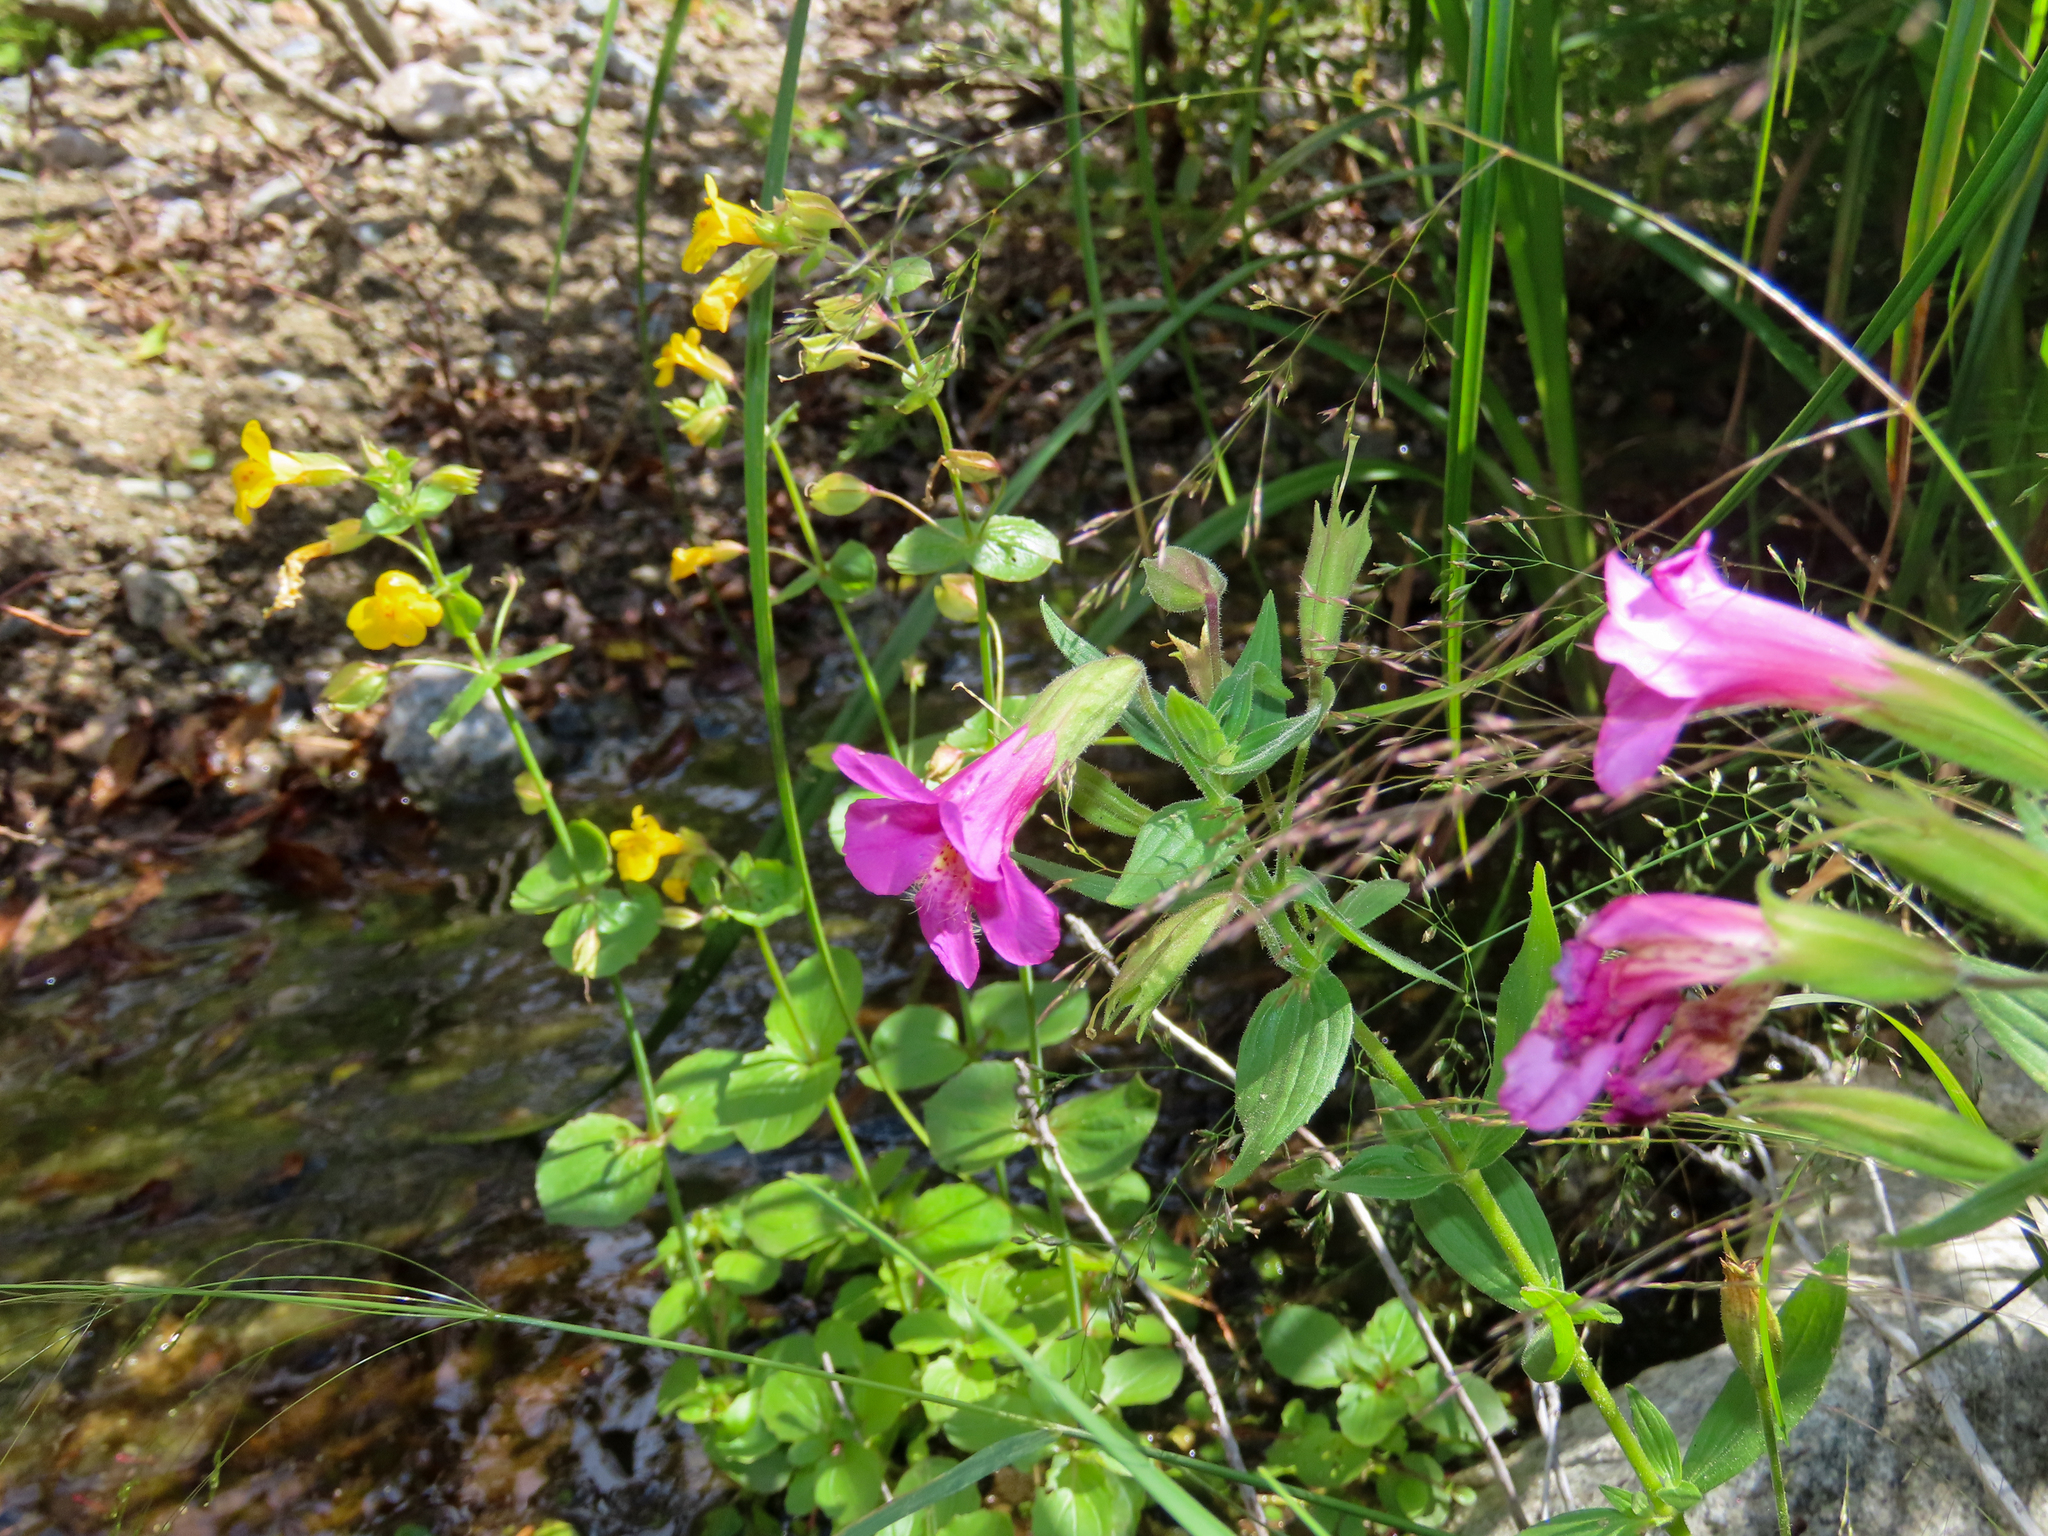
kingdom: Plantae
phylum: Tracheophyta
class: Magnoliopsida
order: Lamiales
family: Phrymaceae
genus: Erythranthe
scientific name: Erythranthe lewisii
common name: Lewis's monkey-flower
